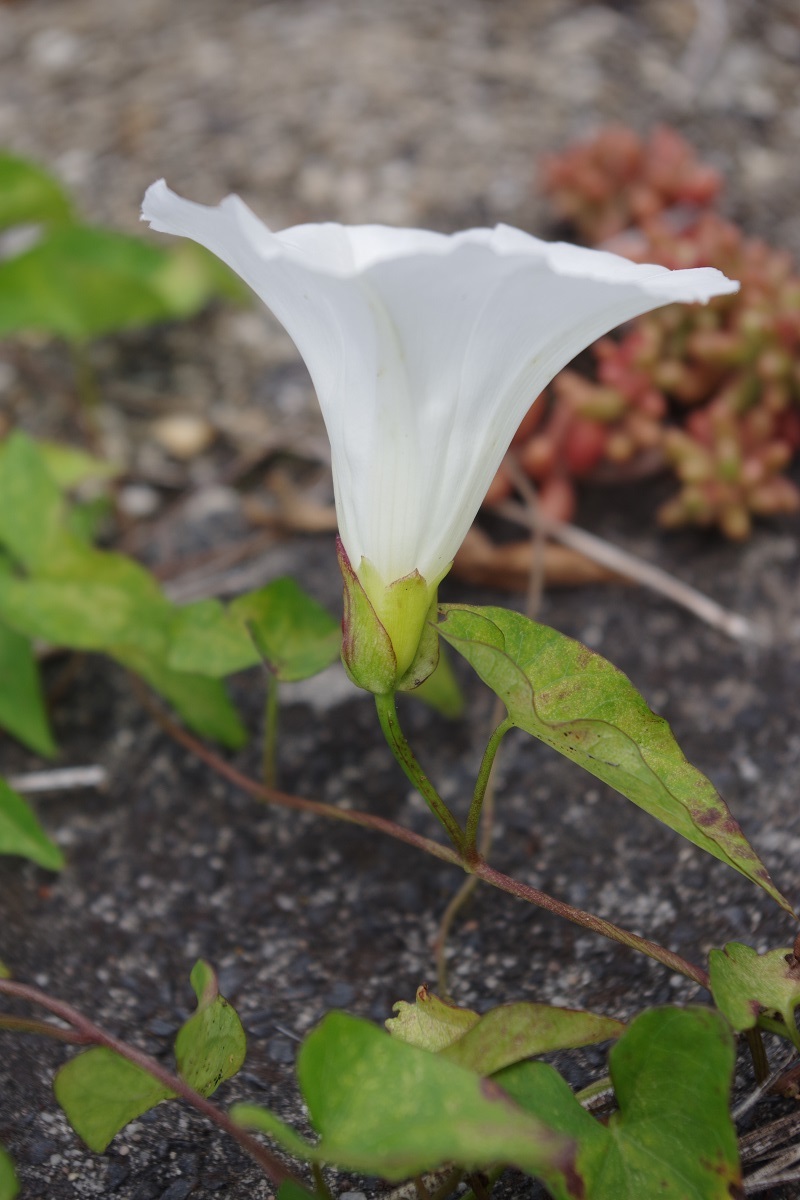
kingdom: Plantae
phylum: Tracheophyta
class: Magnoliopsida
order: Solanales
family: Convolvulaceae
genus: Calystegia
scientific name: Calystegia sepium
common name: Hedge bindweed
